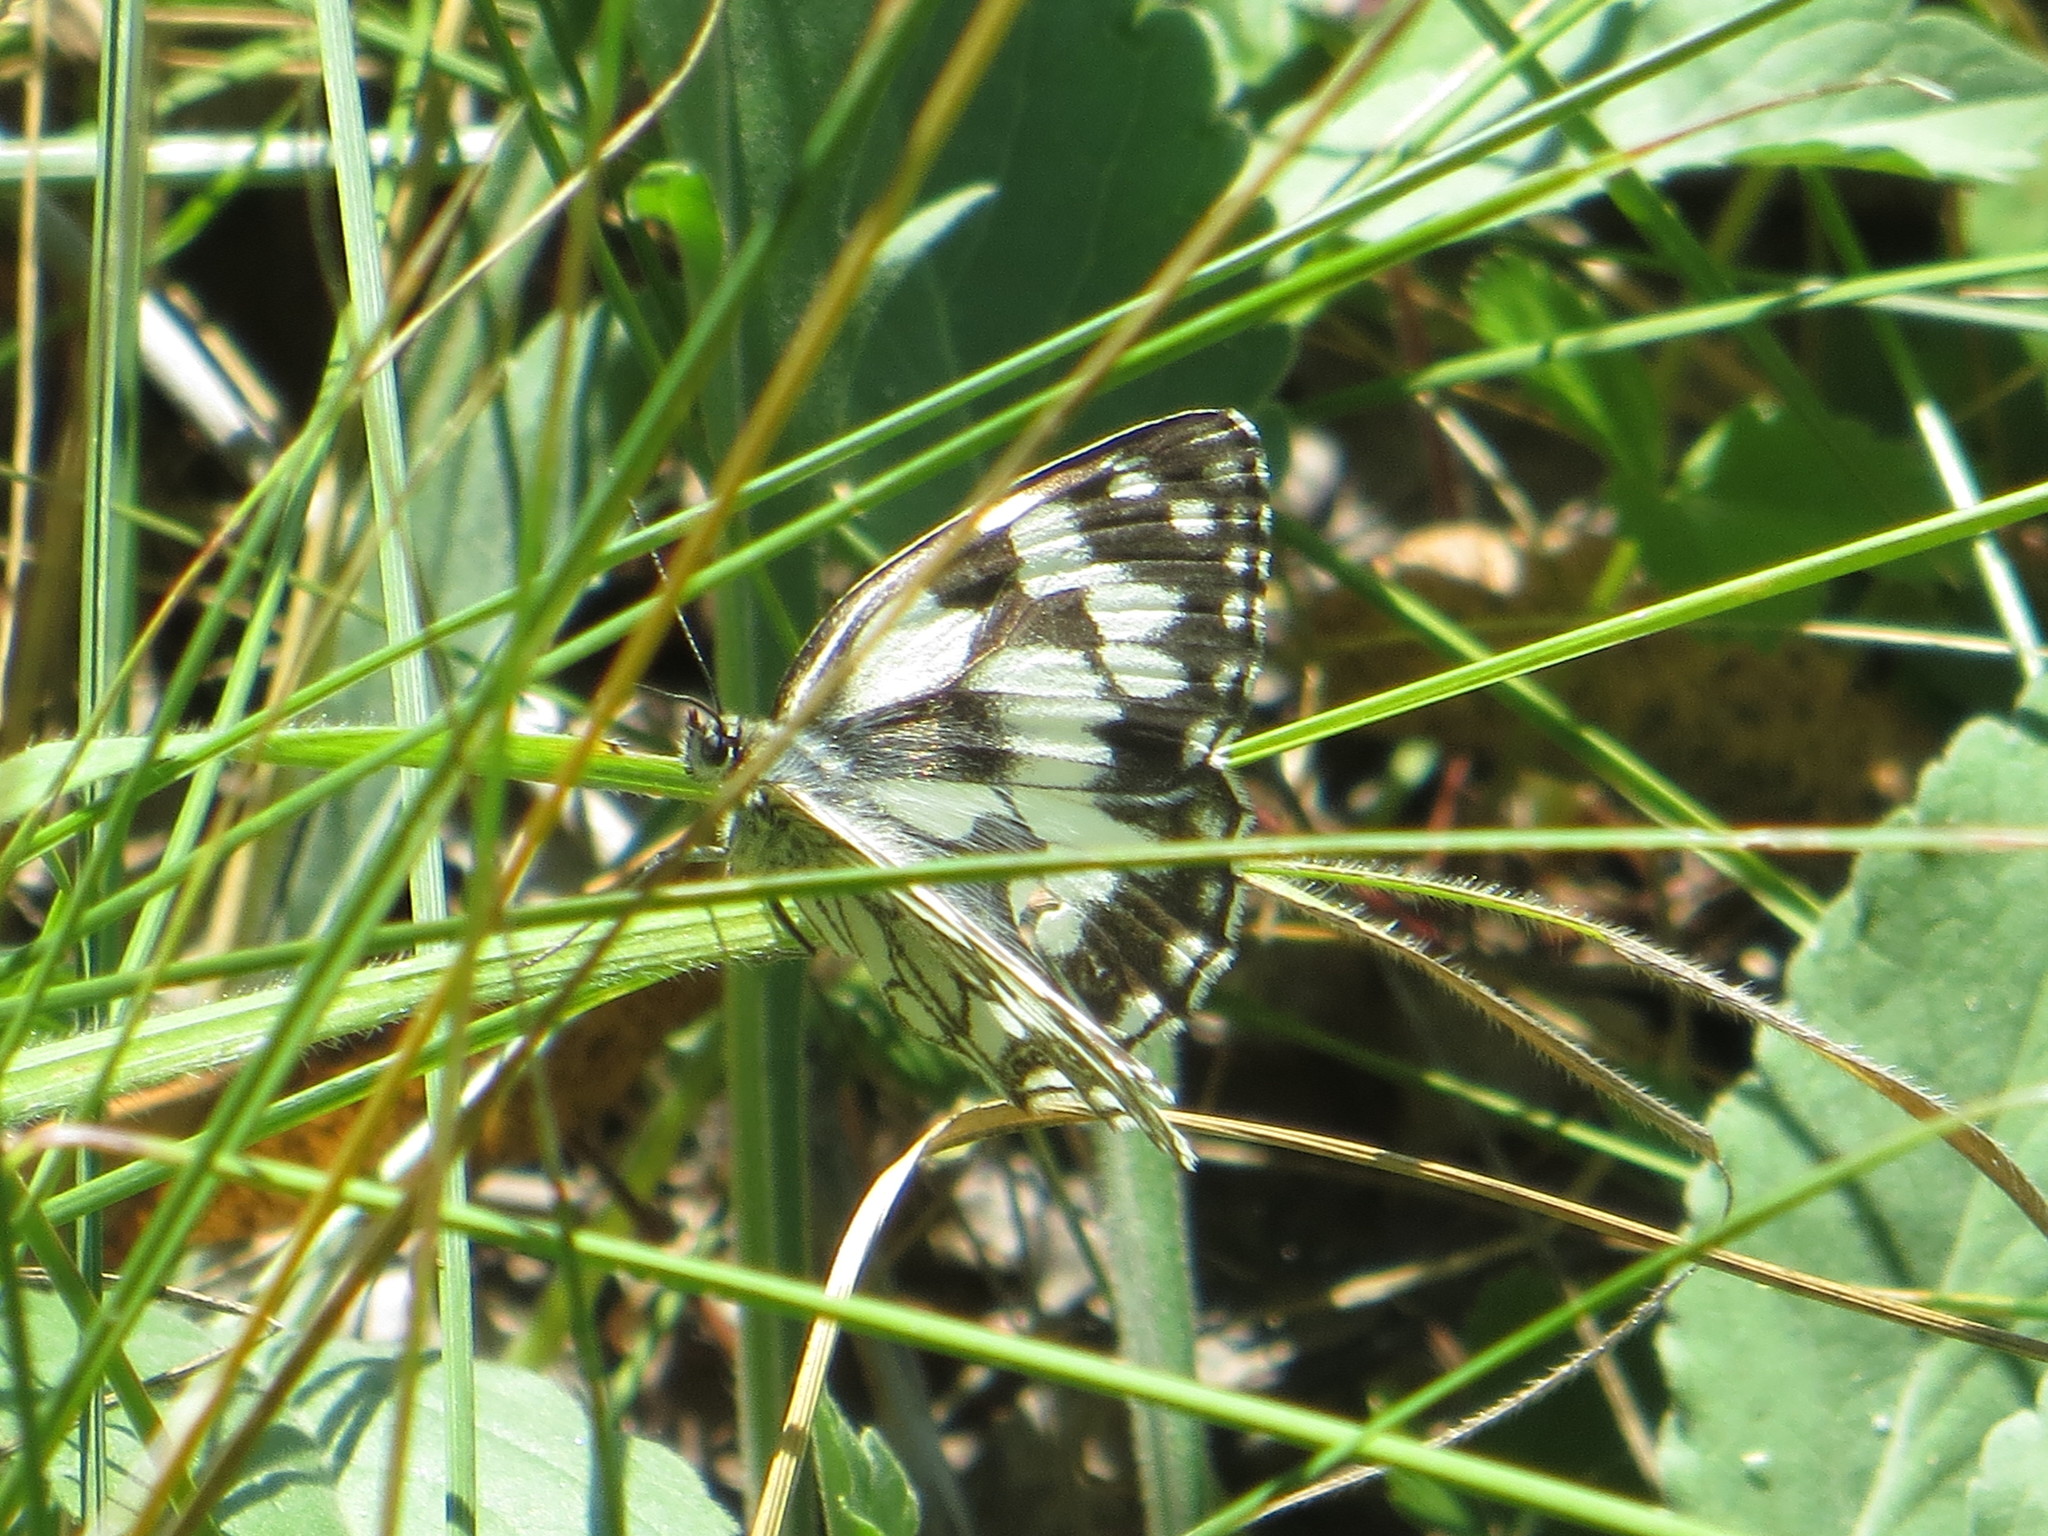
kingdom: Animalia
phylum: Arthropoda
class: Insecta
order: Lepidoptera
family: Nymphalidae
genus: Melanargia
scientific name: Melanargia galathea
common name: Marbled white
